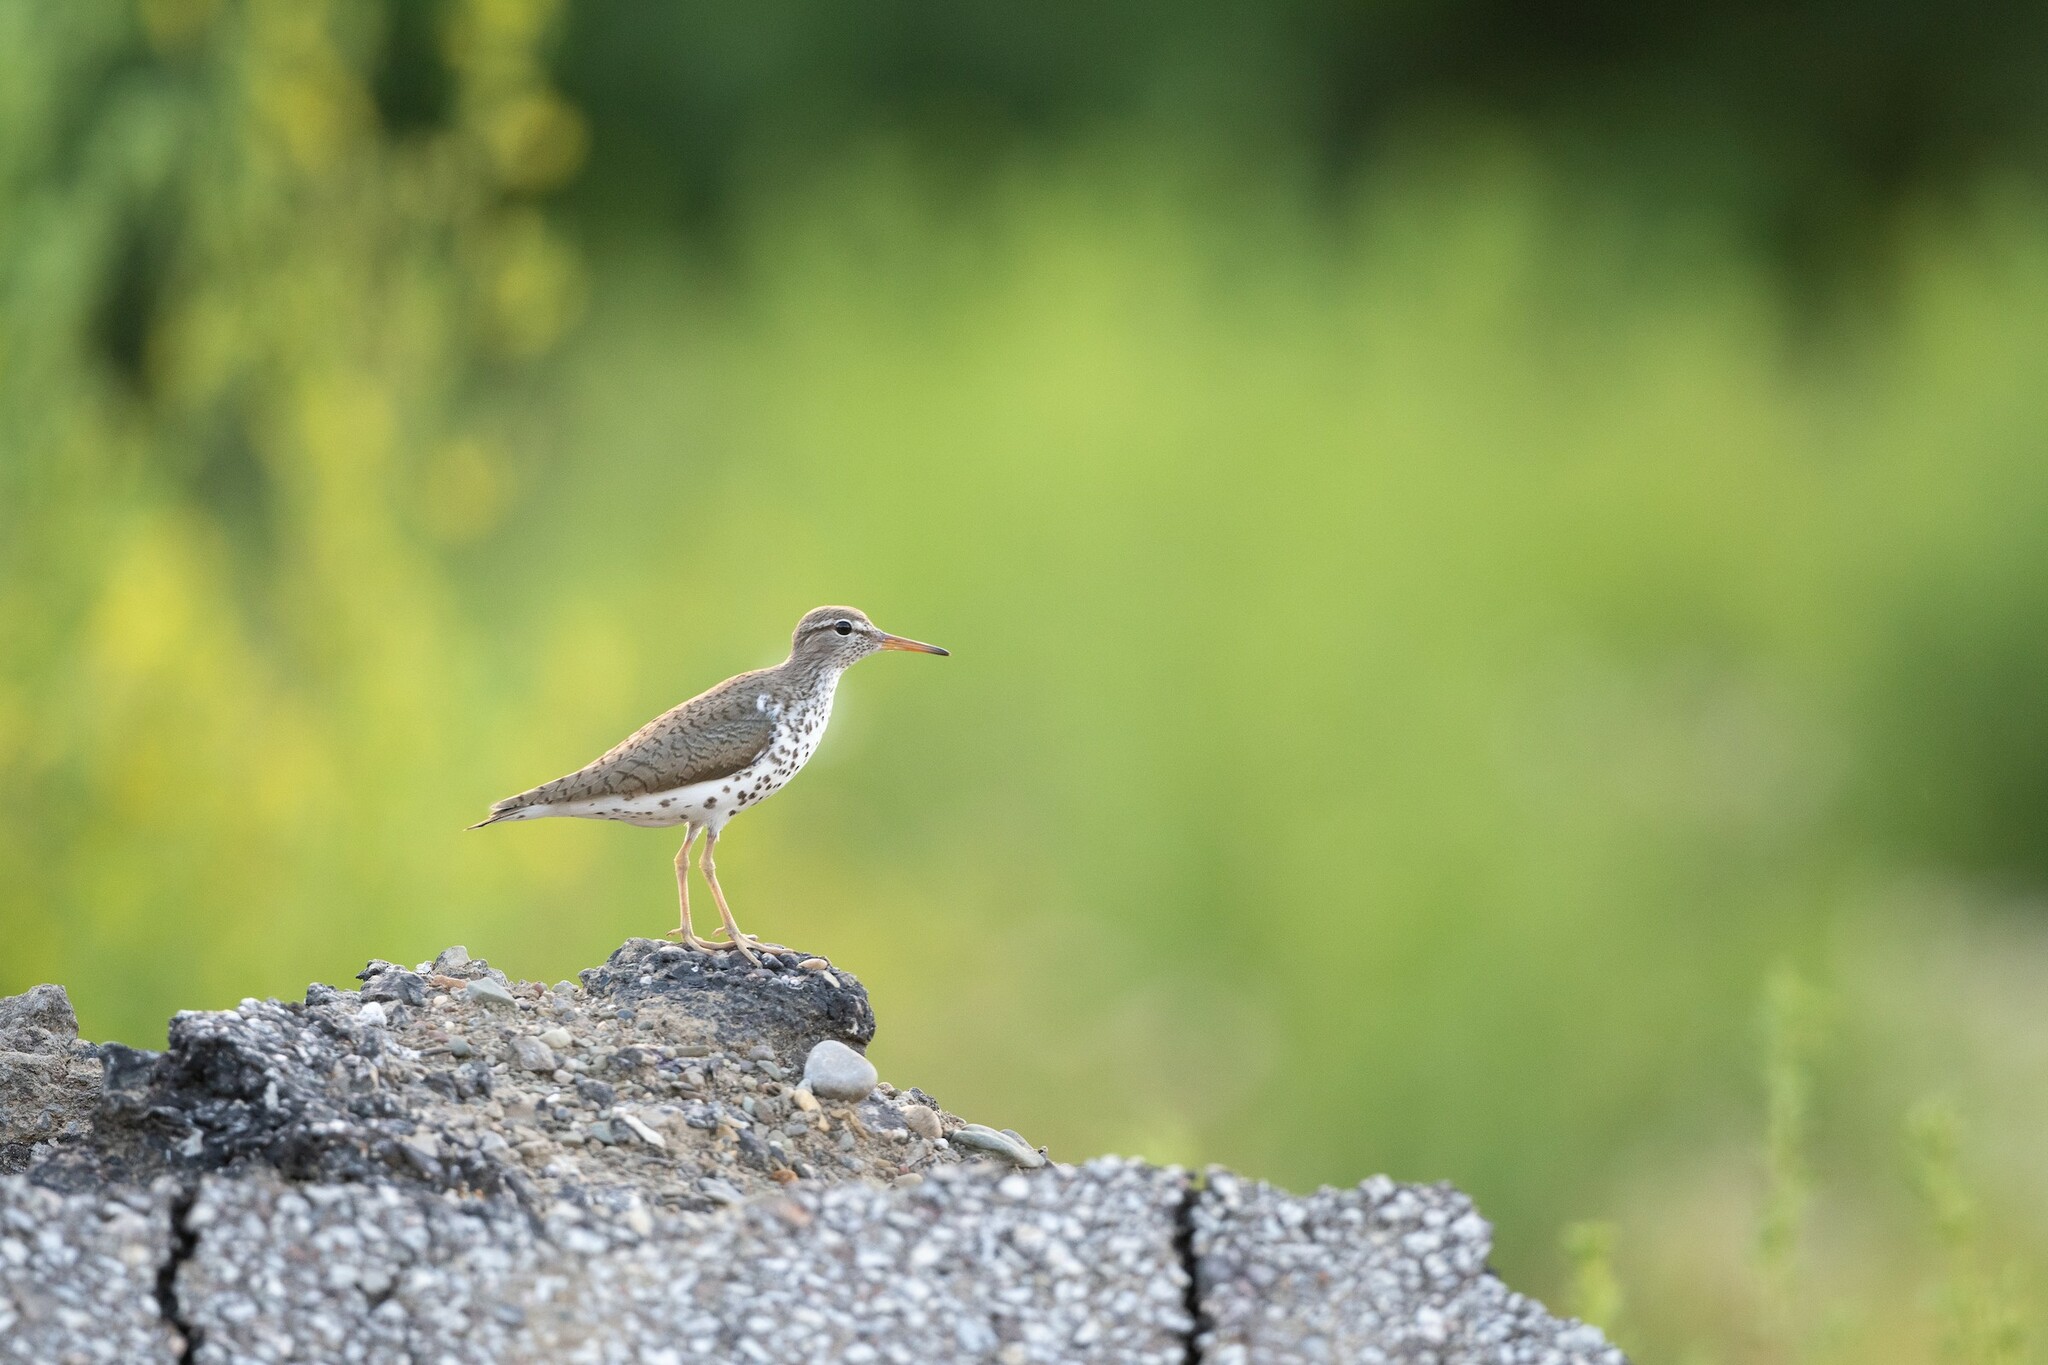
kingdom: Animalia
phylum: Chordata
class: Aves
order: Charadriiformes
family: Scolopacidae
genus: Actitis
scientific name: Actitis macularius
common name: Spotted sandpiper
